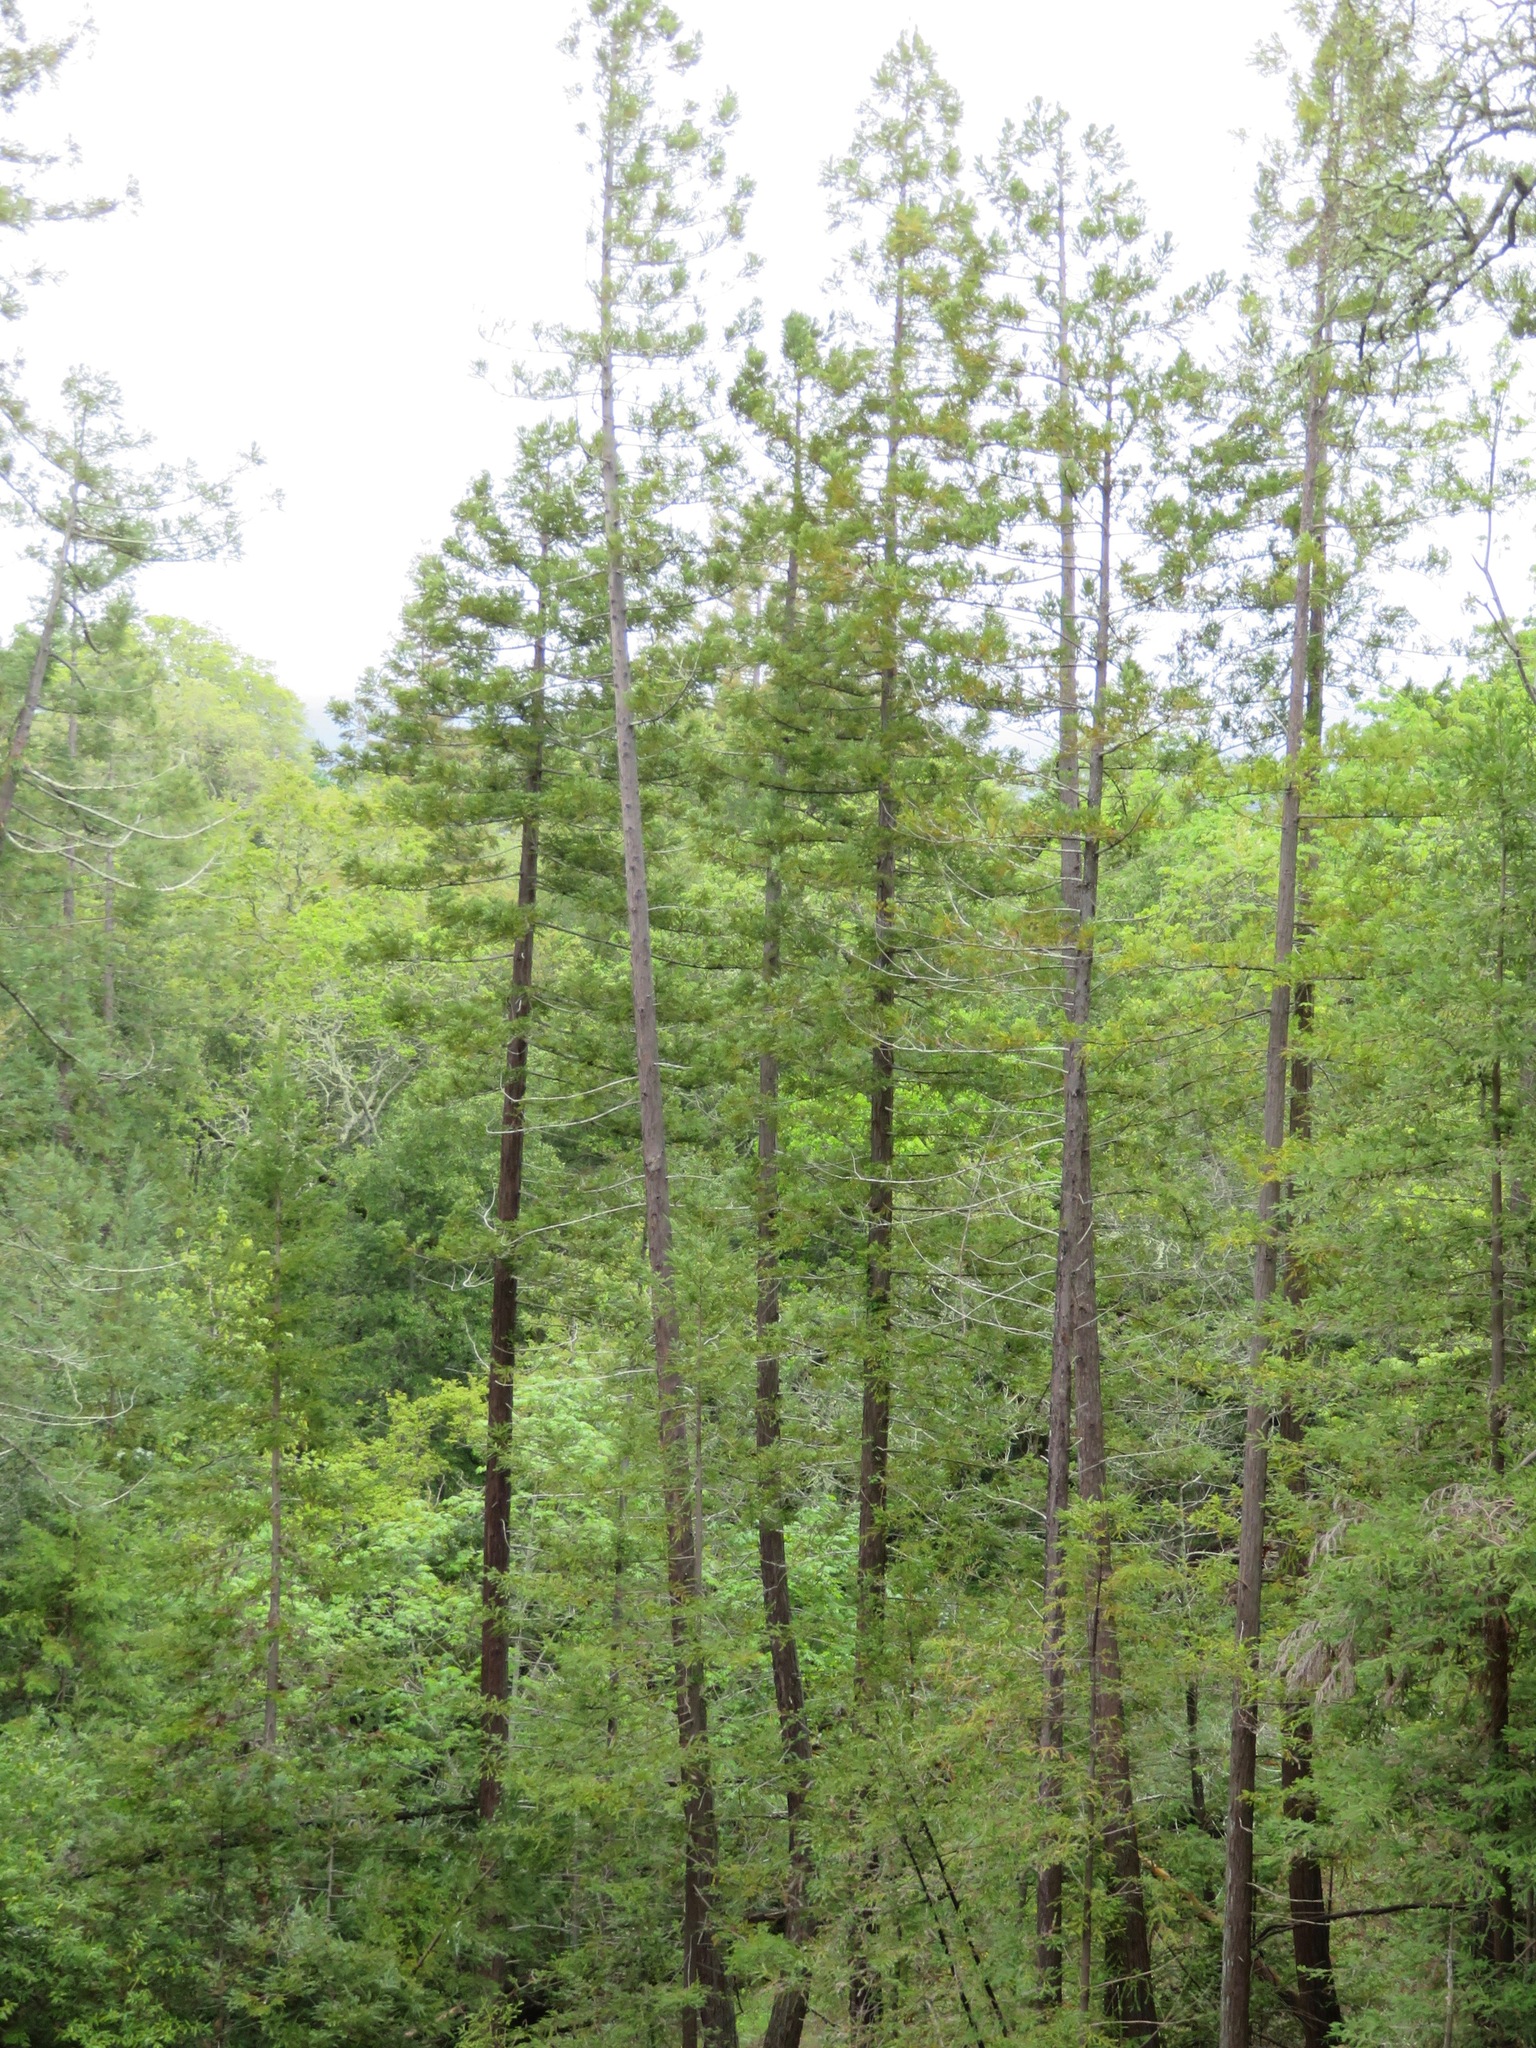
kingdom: Plantae
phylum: Tracheophyta
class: Pinopsida
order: Pinales
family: Cupressaceae
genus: Sequoia
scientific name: Sequoia sempervirens
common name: Coast redwood
